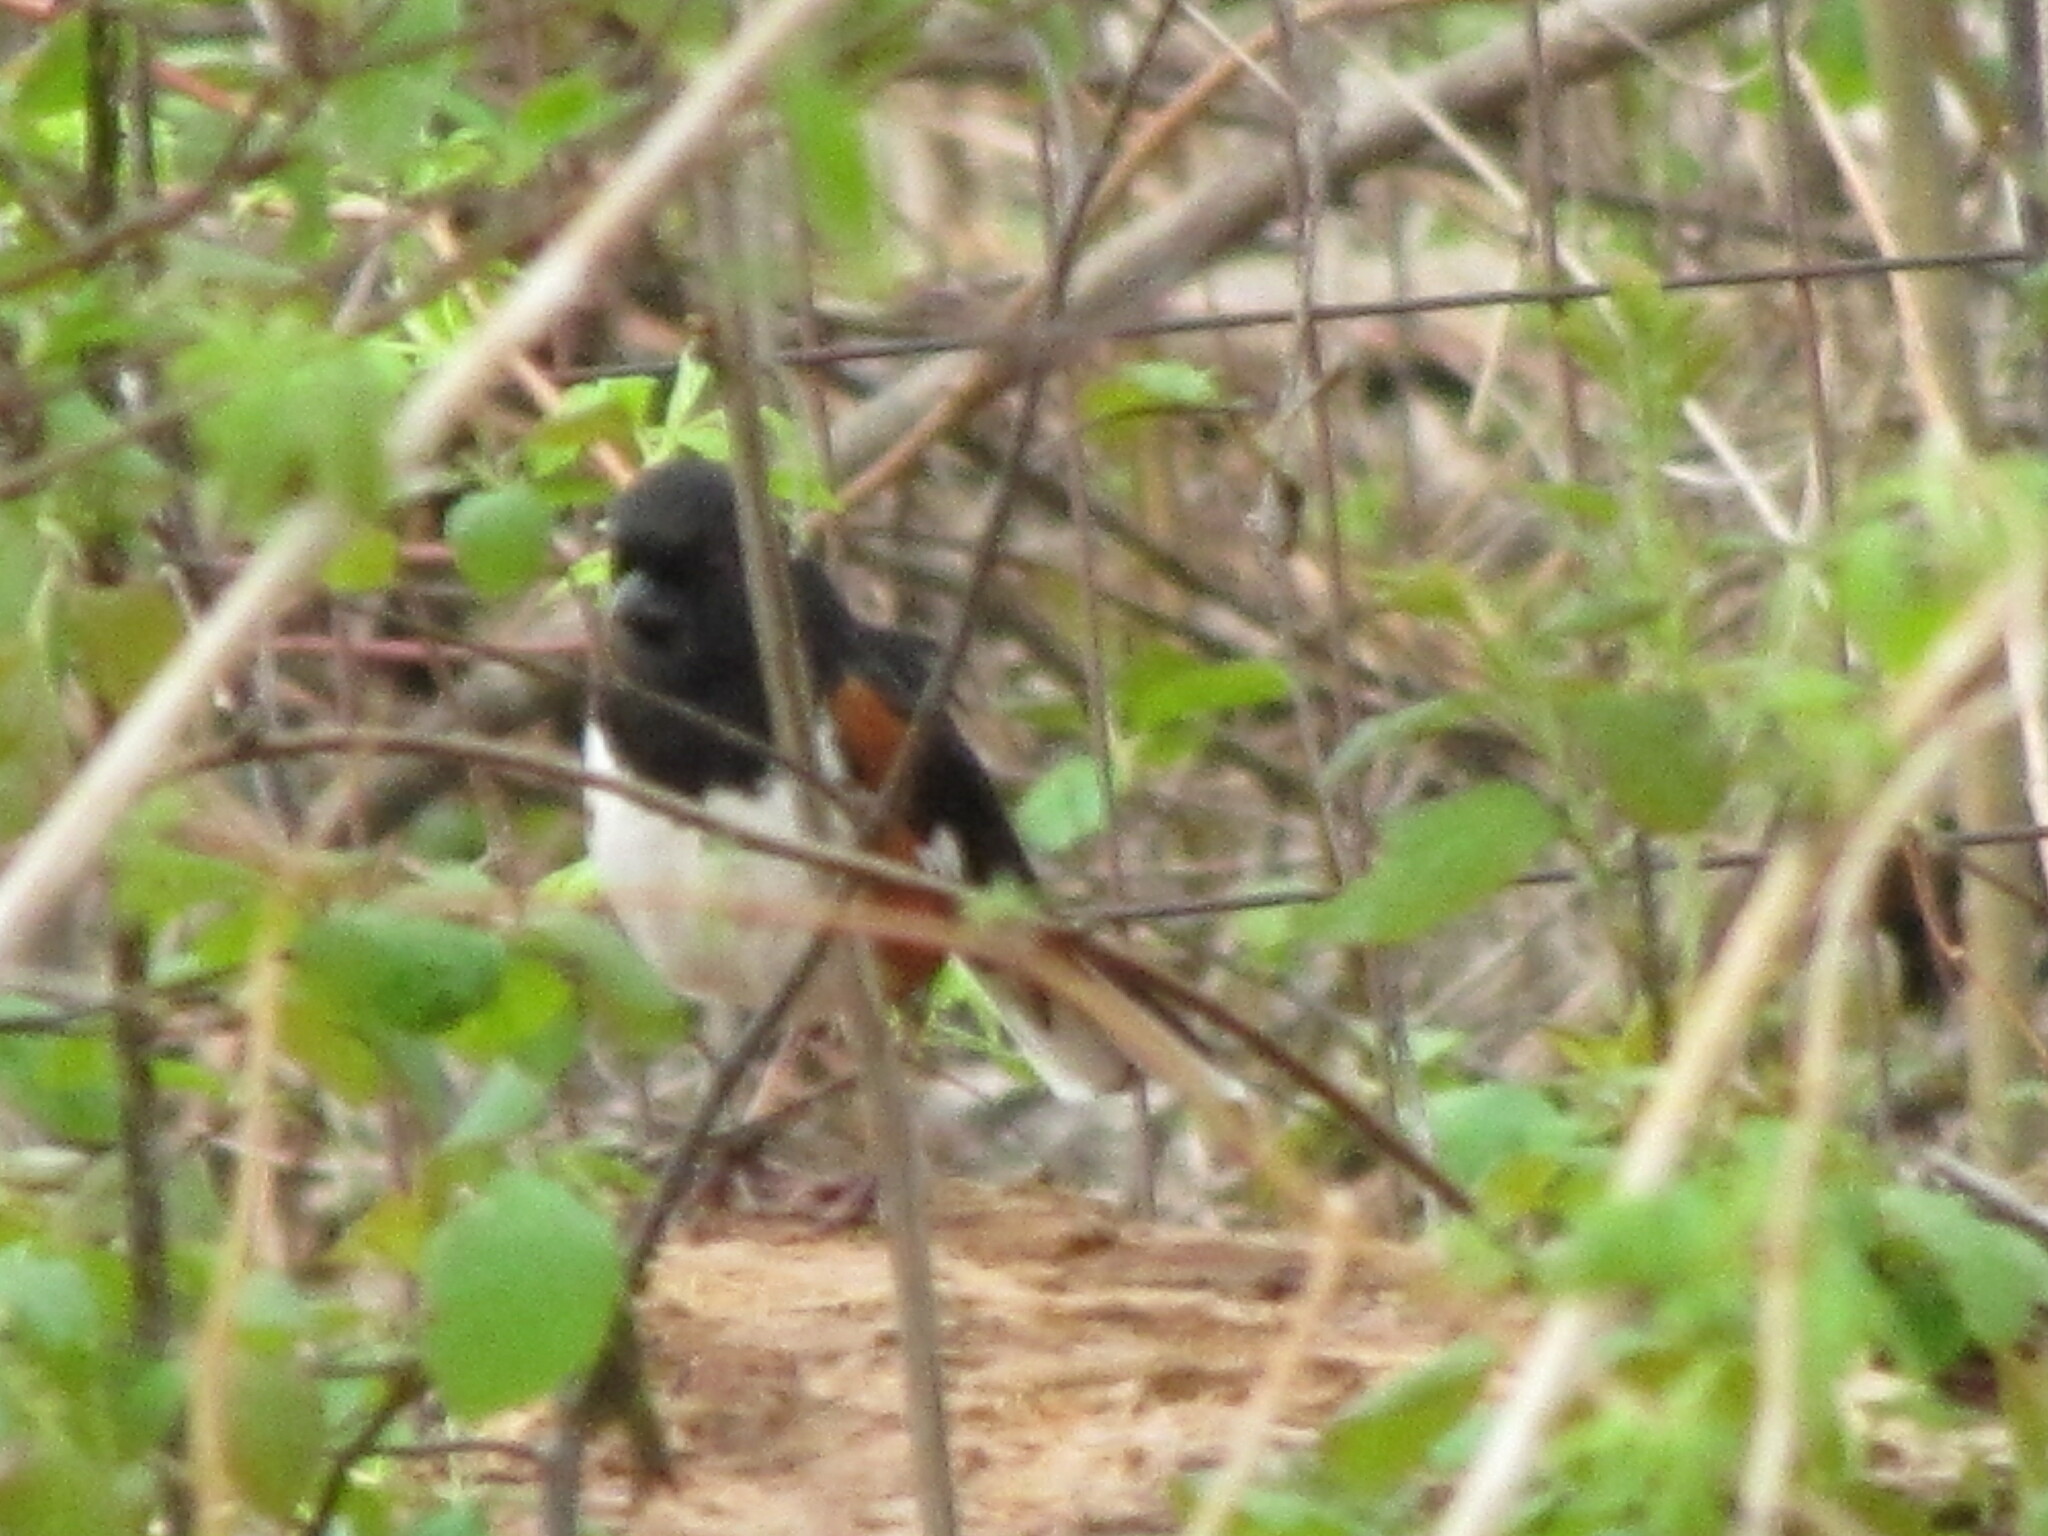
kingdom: Animalia
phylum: Chordata
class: Aves
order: Passeriformes
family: Passerellidae
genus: Pipilo
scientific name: Pipilo erythrophthalmus
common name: Eastern towhee
